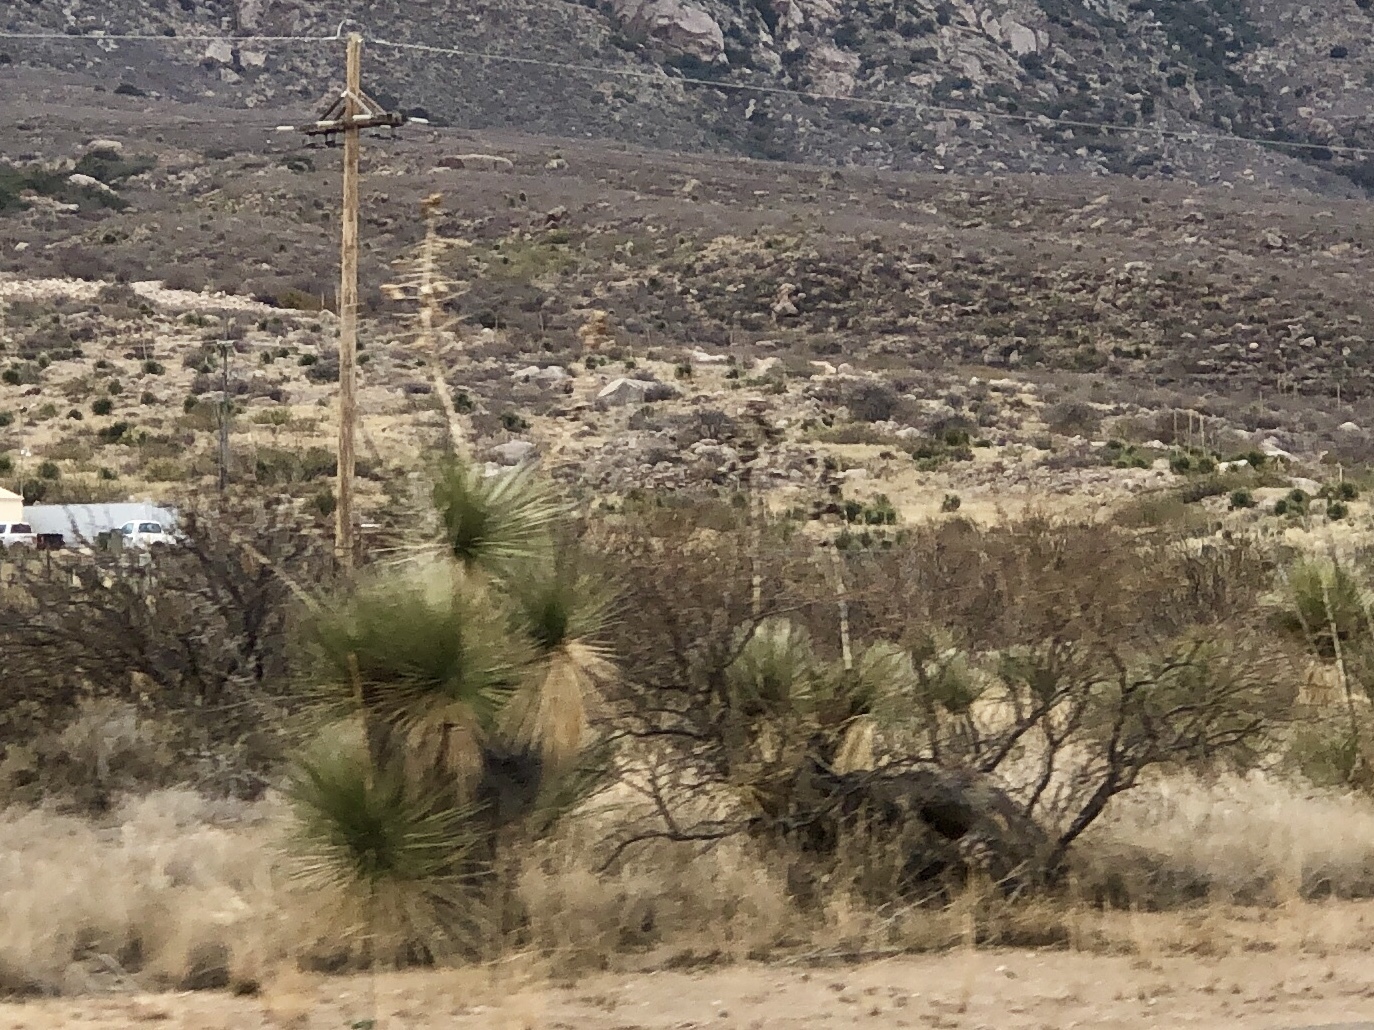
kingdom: Plantae
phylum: Tracheophyta
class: Liliopsida
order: Asparagales
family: Asparagaceae
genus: Yucca
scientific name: Yucca elata
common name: Palmella
